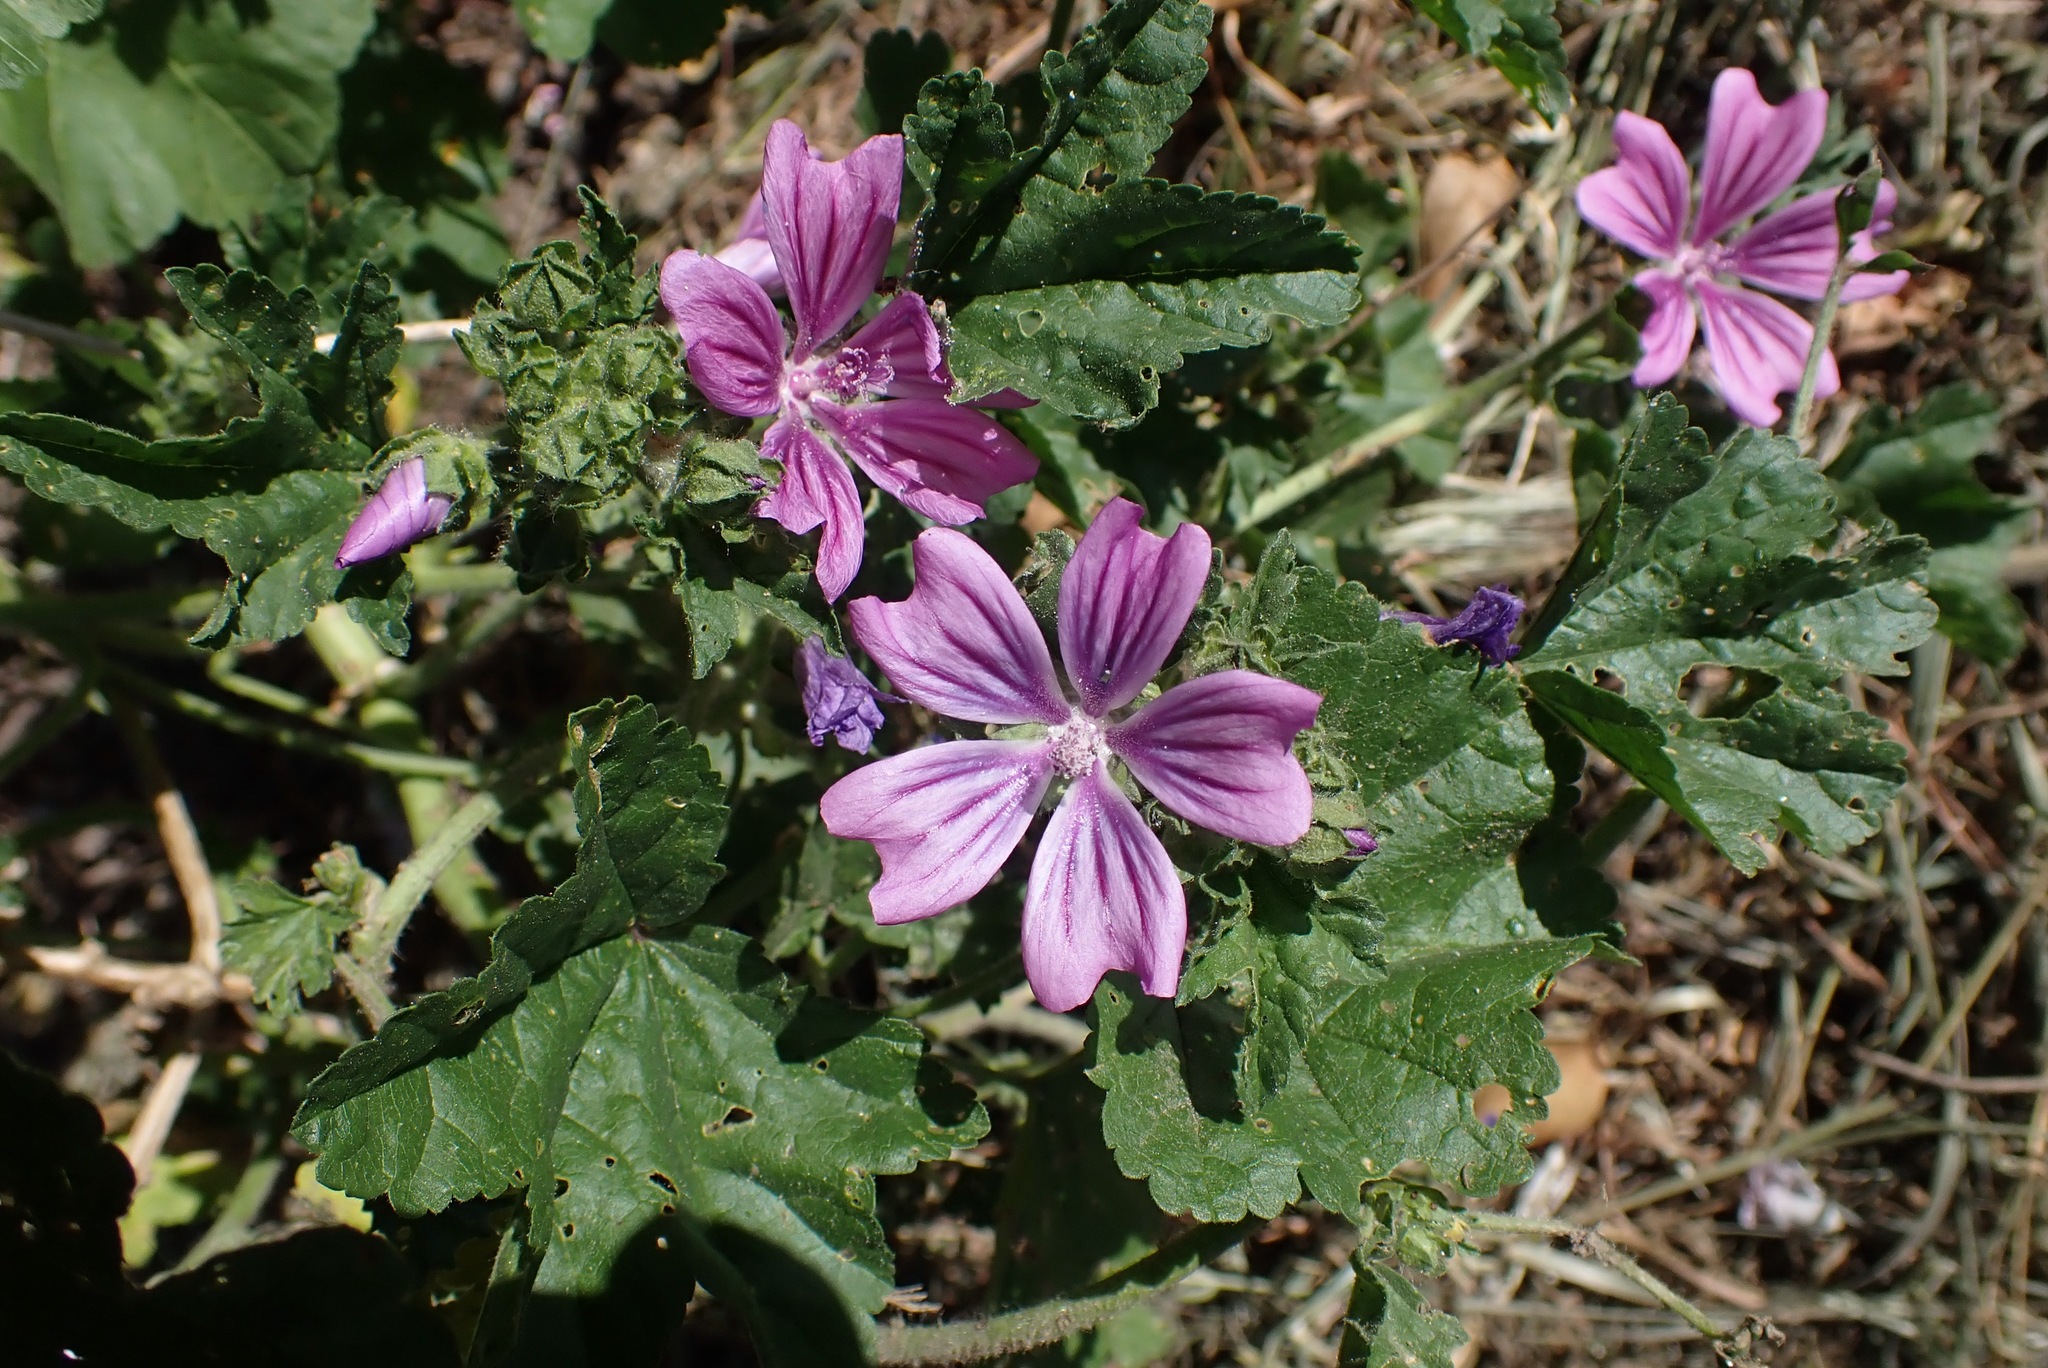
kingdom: Plantae
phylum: Tracheophyta
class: Magnoliopsida
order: Malvales
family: Malvaceae
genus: Malva
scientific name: Malva sylvestris
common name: Common mallow
